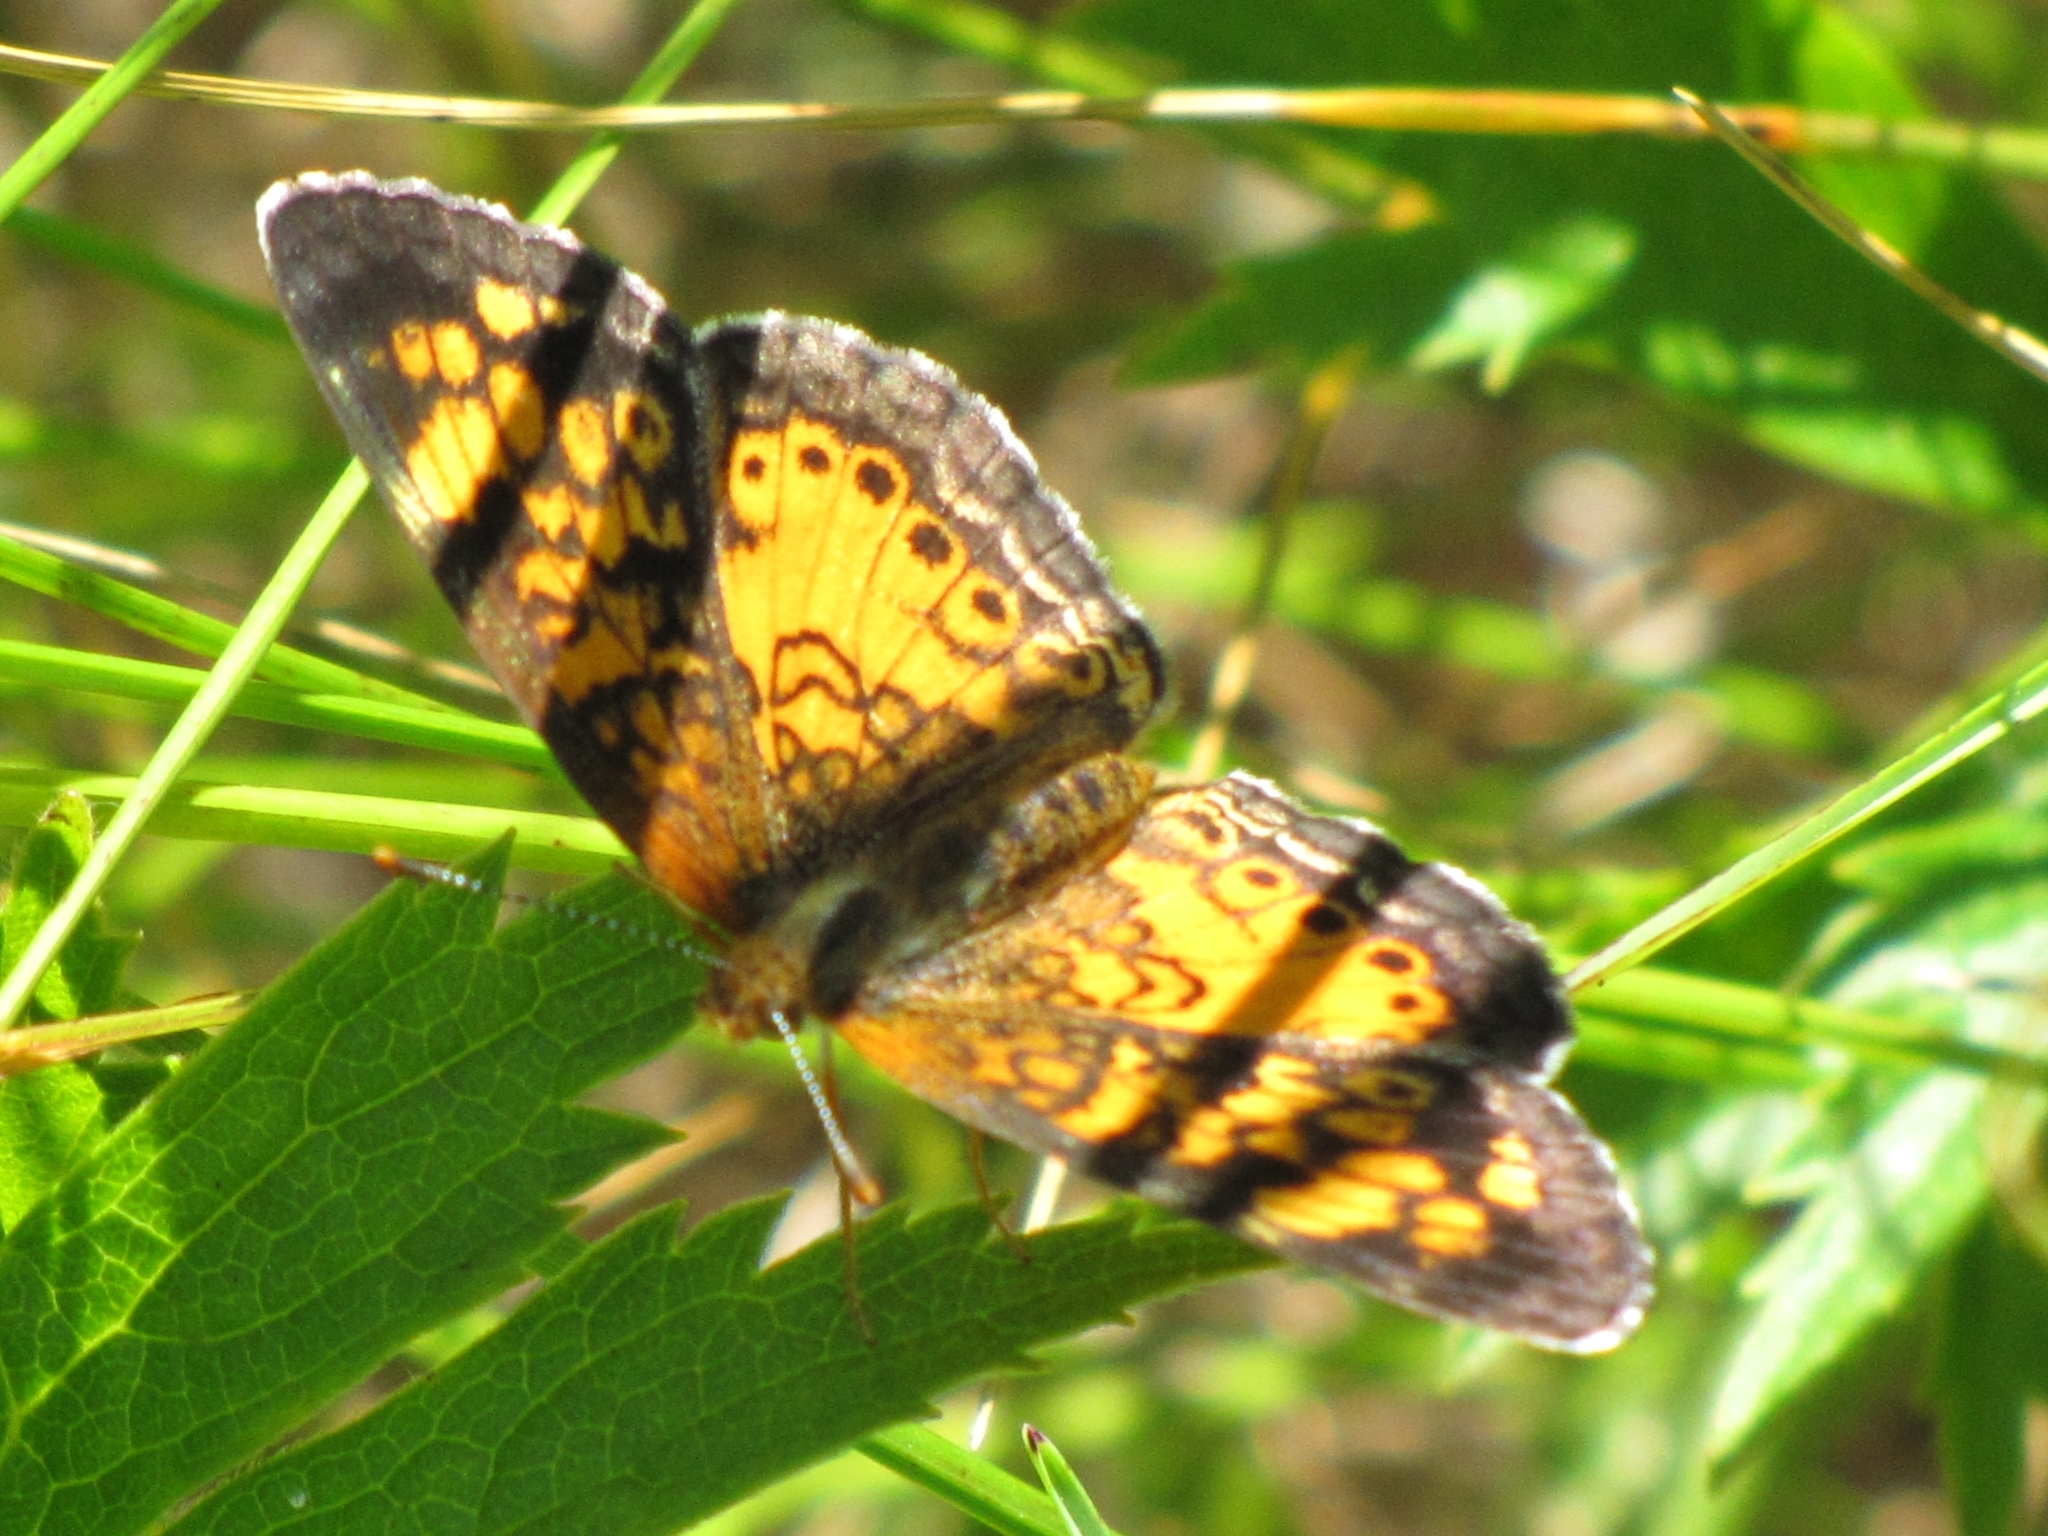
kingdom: Animalia
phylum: Arthropoda
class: Insecta
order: Lepidoptera
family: Nymphalidae
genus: Phyciodes
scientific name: Phyciodes tharos
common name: Pearl crescent
